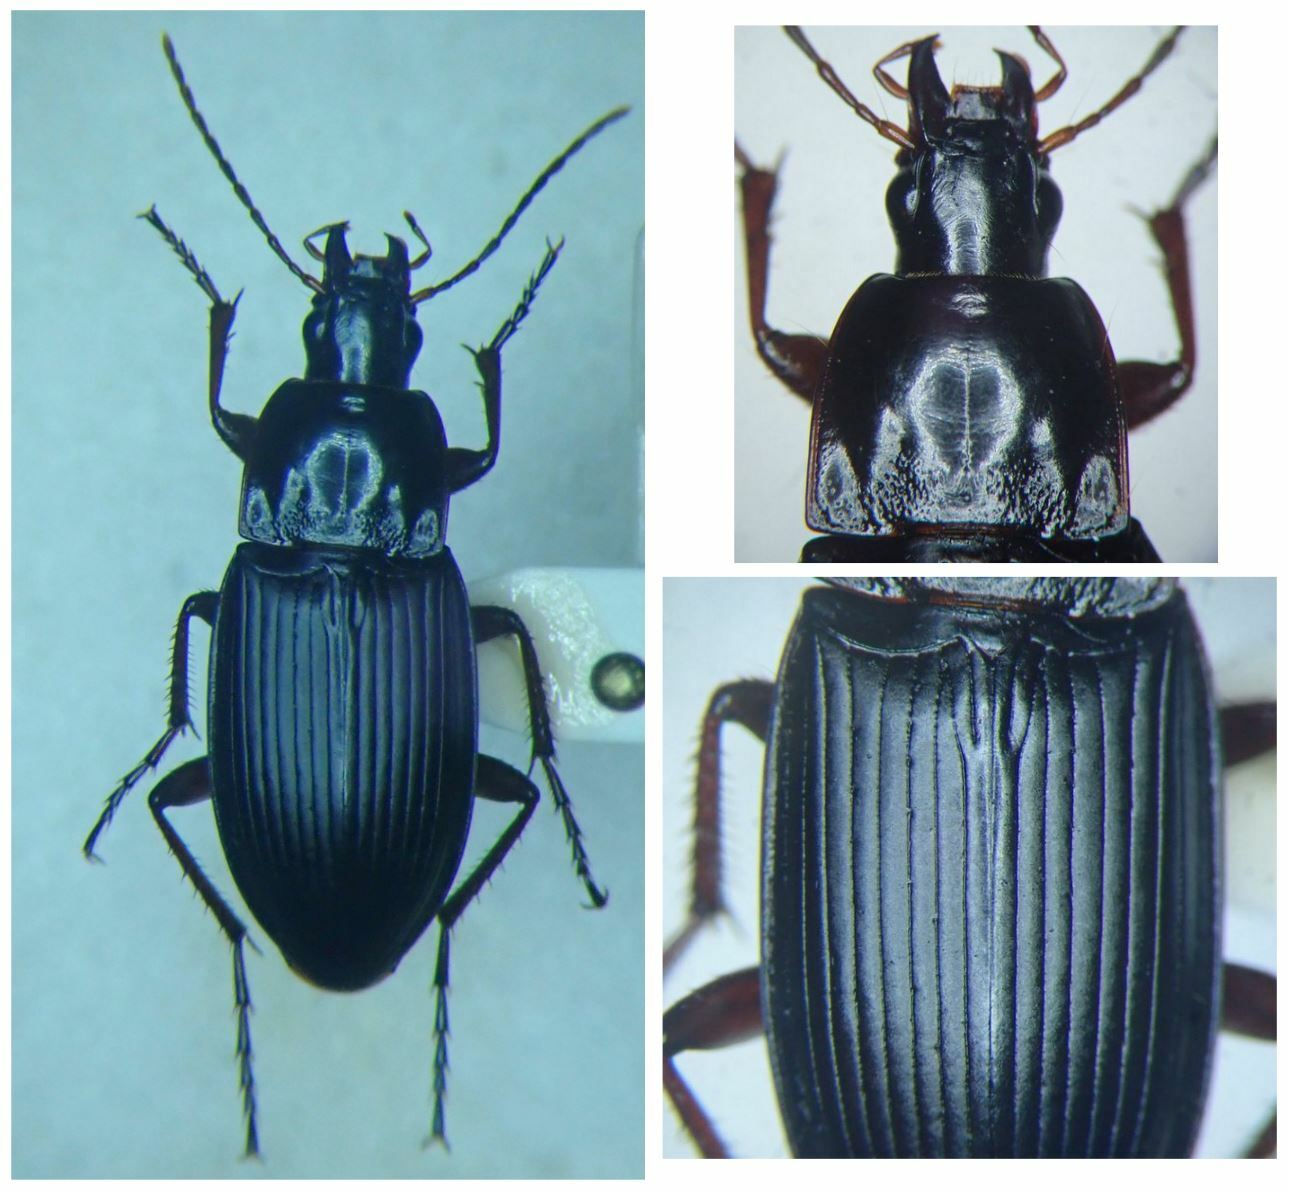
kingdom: Animalia
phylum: Arthropoda
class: Insecta
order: Coleoptera
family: Carabidae
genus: Calathus
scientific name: Calathus fuscipes
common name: Dark-footed harp ground beetle
